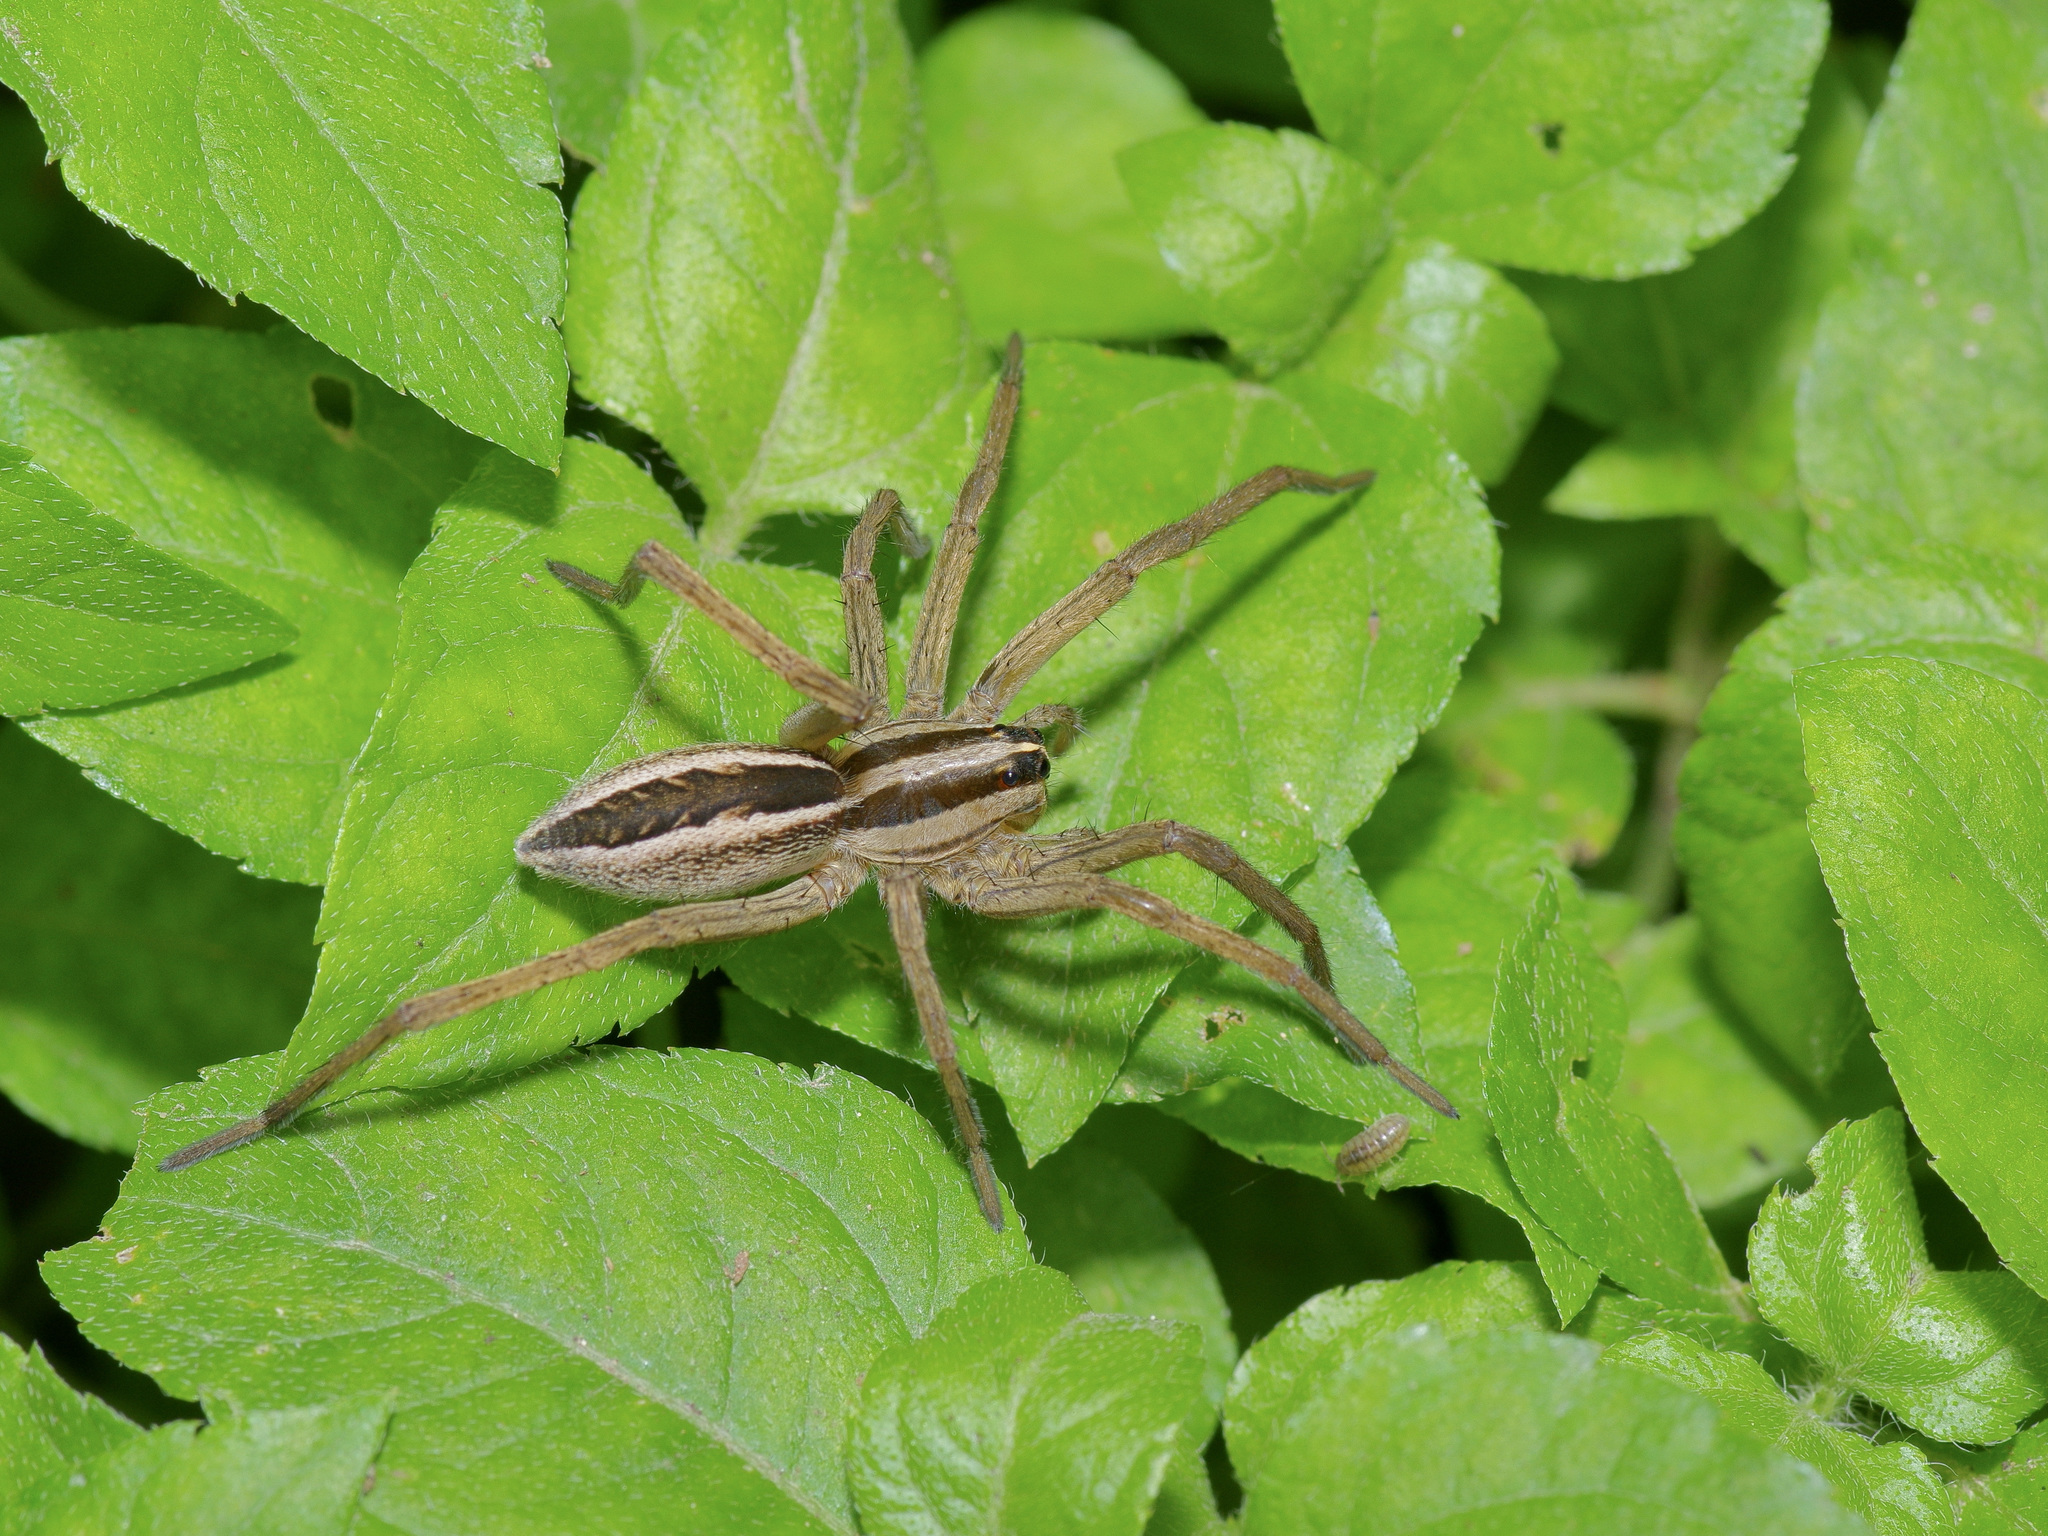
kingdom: Animalia
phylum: Arthropoda
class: Arachnida
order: Araneae
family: Lycosidae
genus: Rabidosa
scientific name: Rabidosa rabida
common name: Rabid wolf spider
